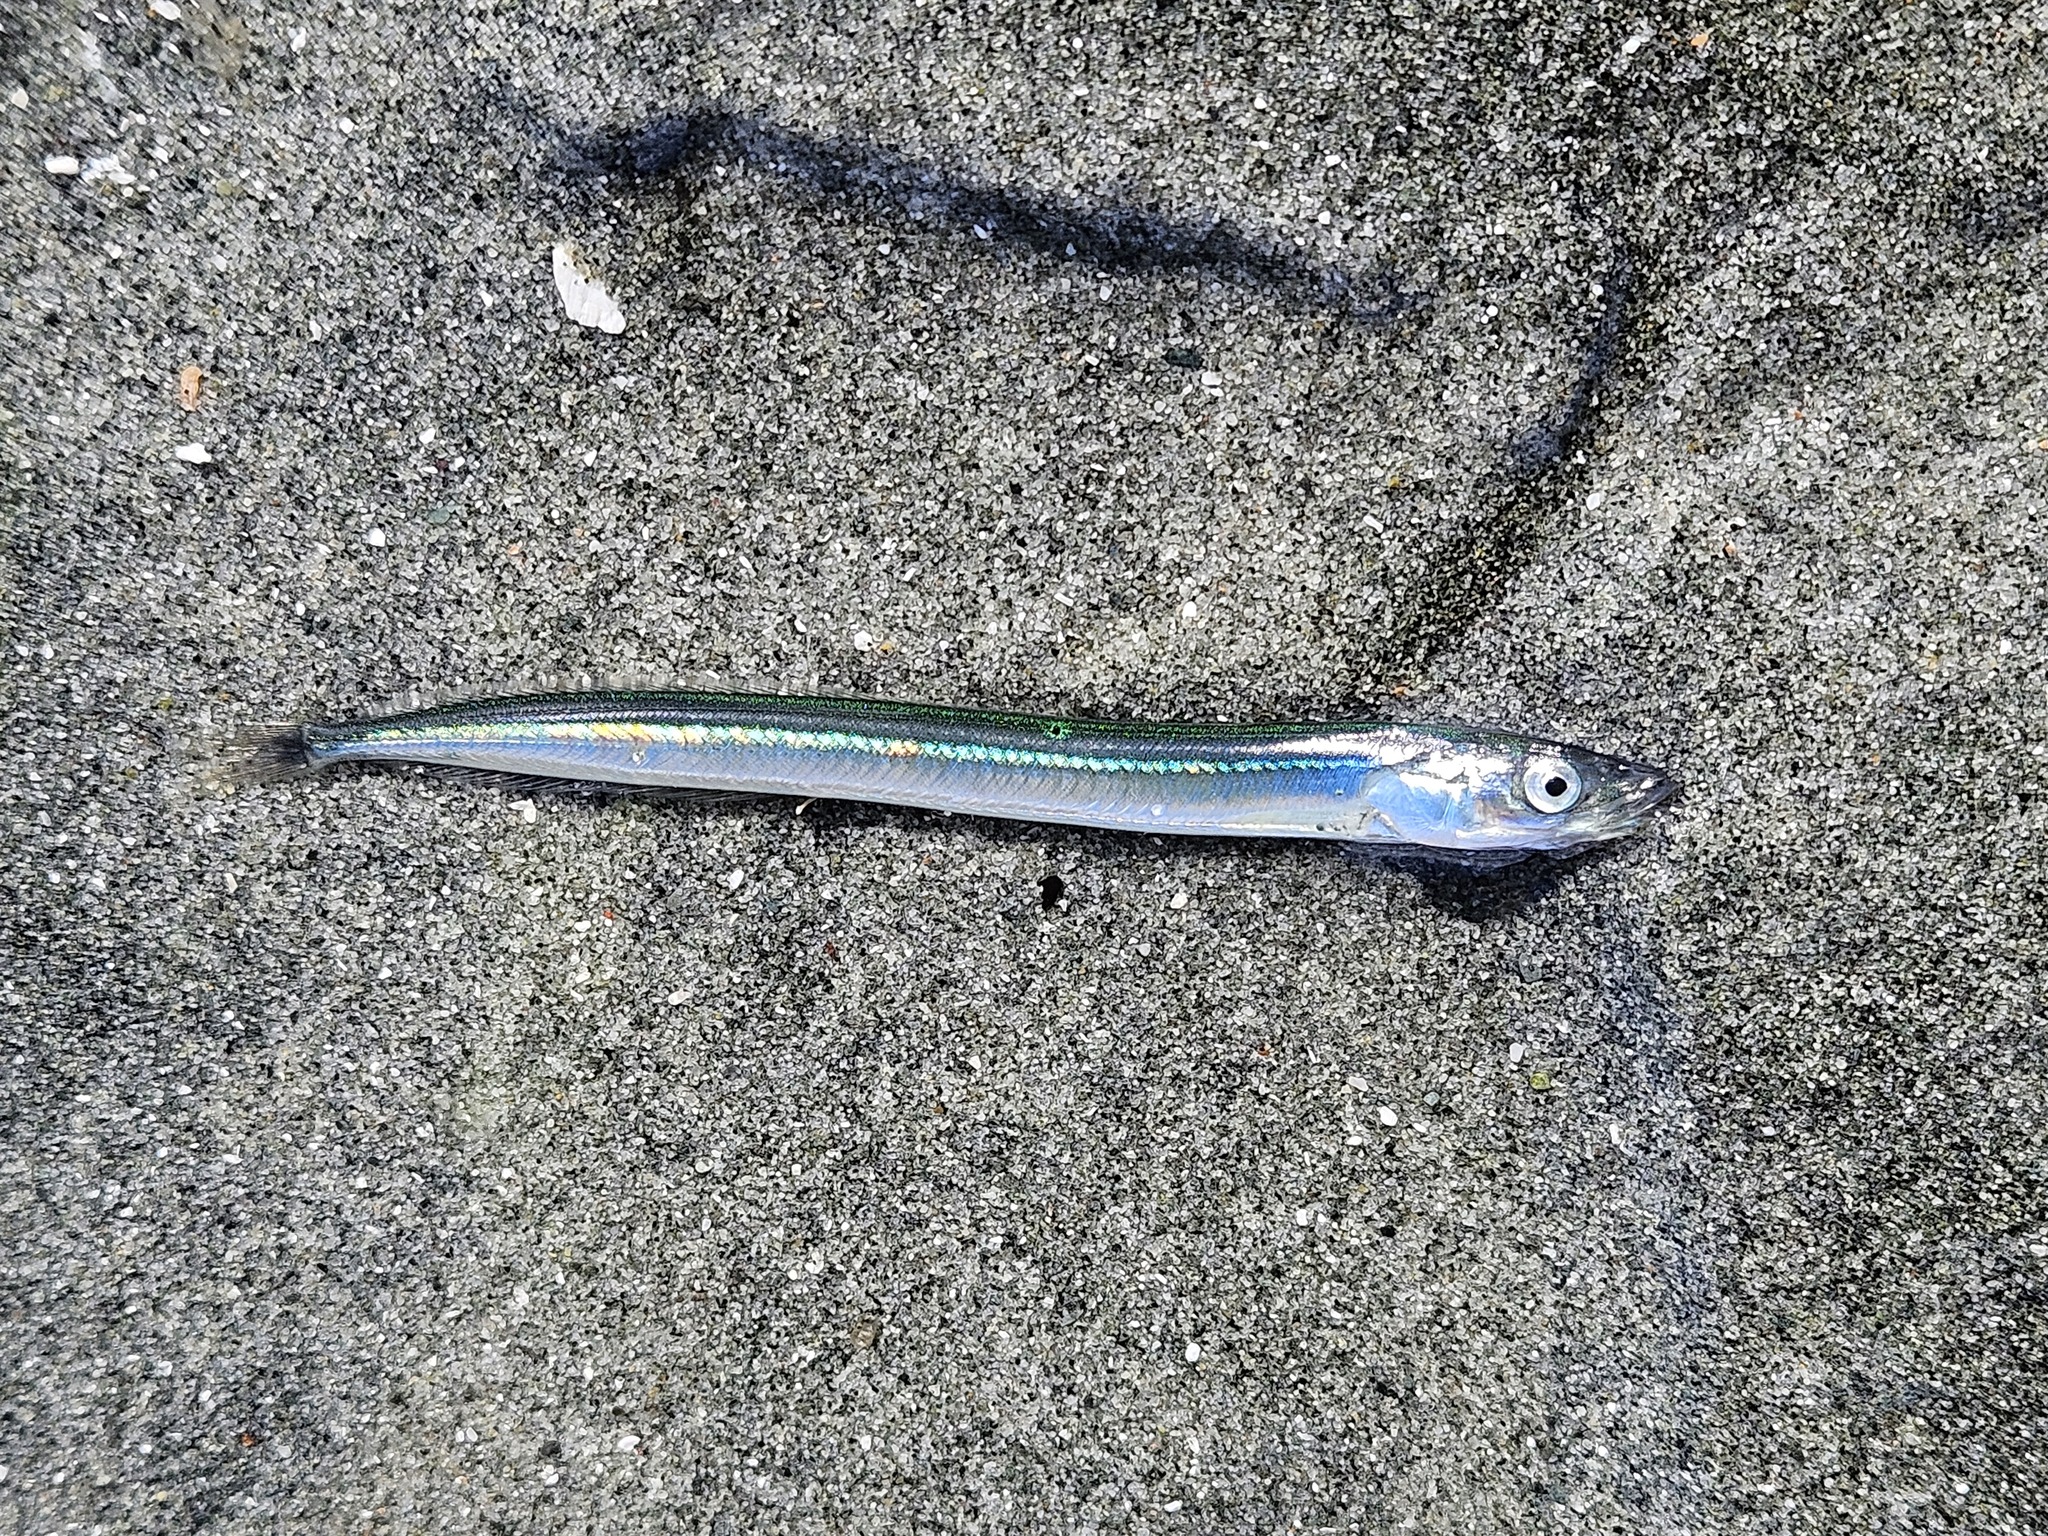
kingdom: Animalia
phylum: Chordata
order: Perciformes
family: Ammodytidae
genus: Ammodytes
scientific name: Ammodytes personatus
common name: Japanese sand lance
